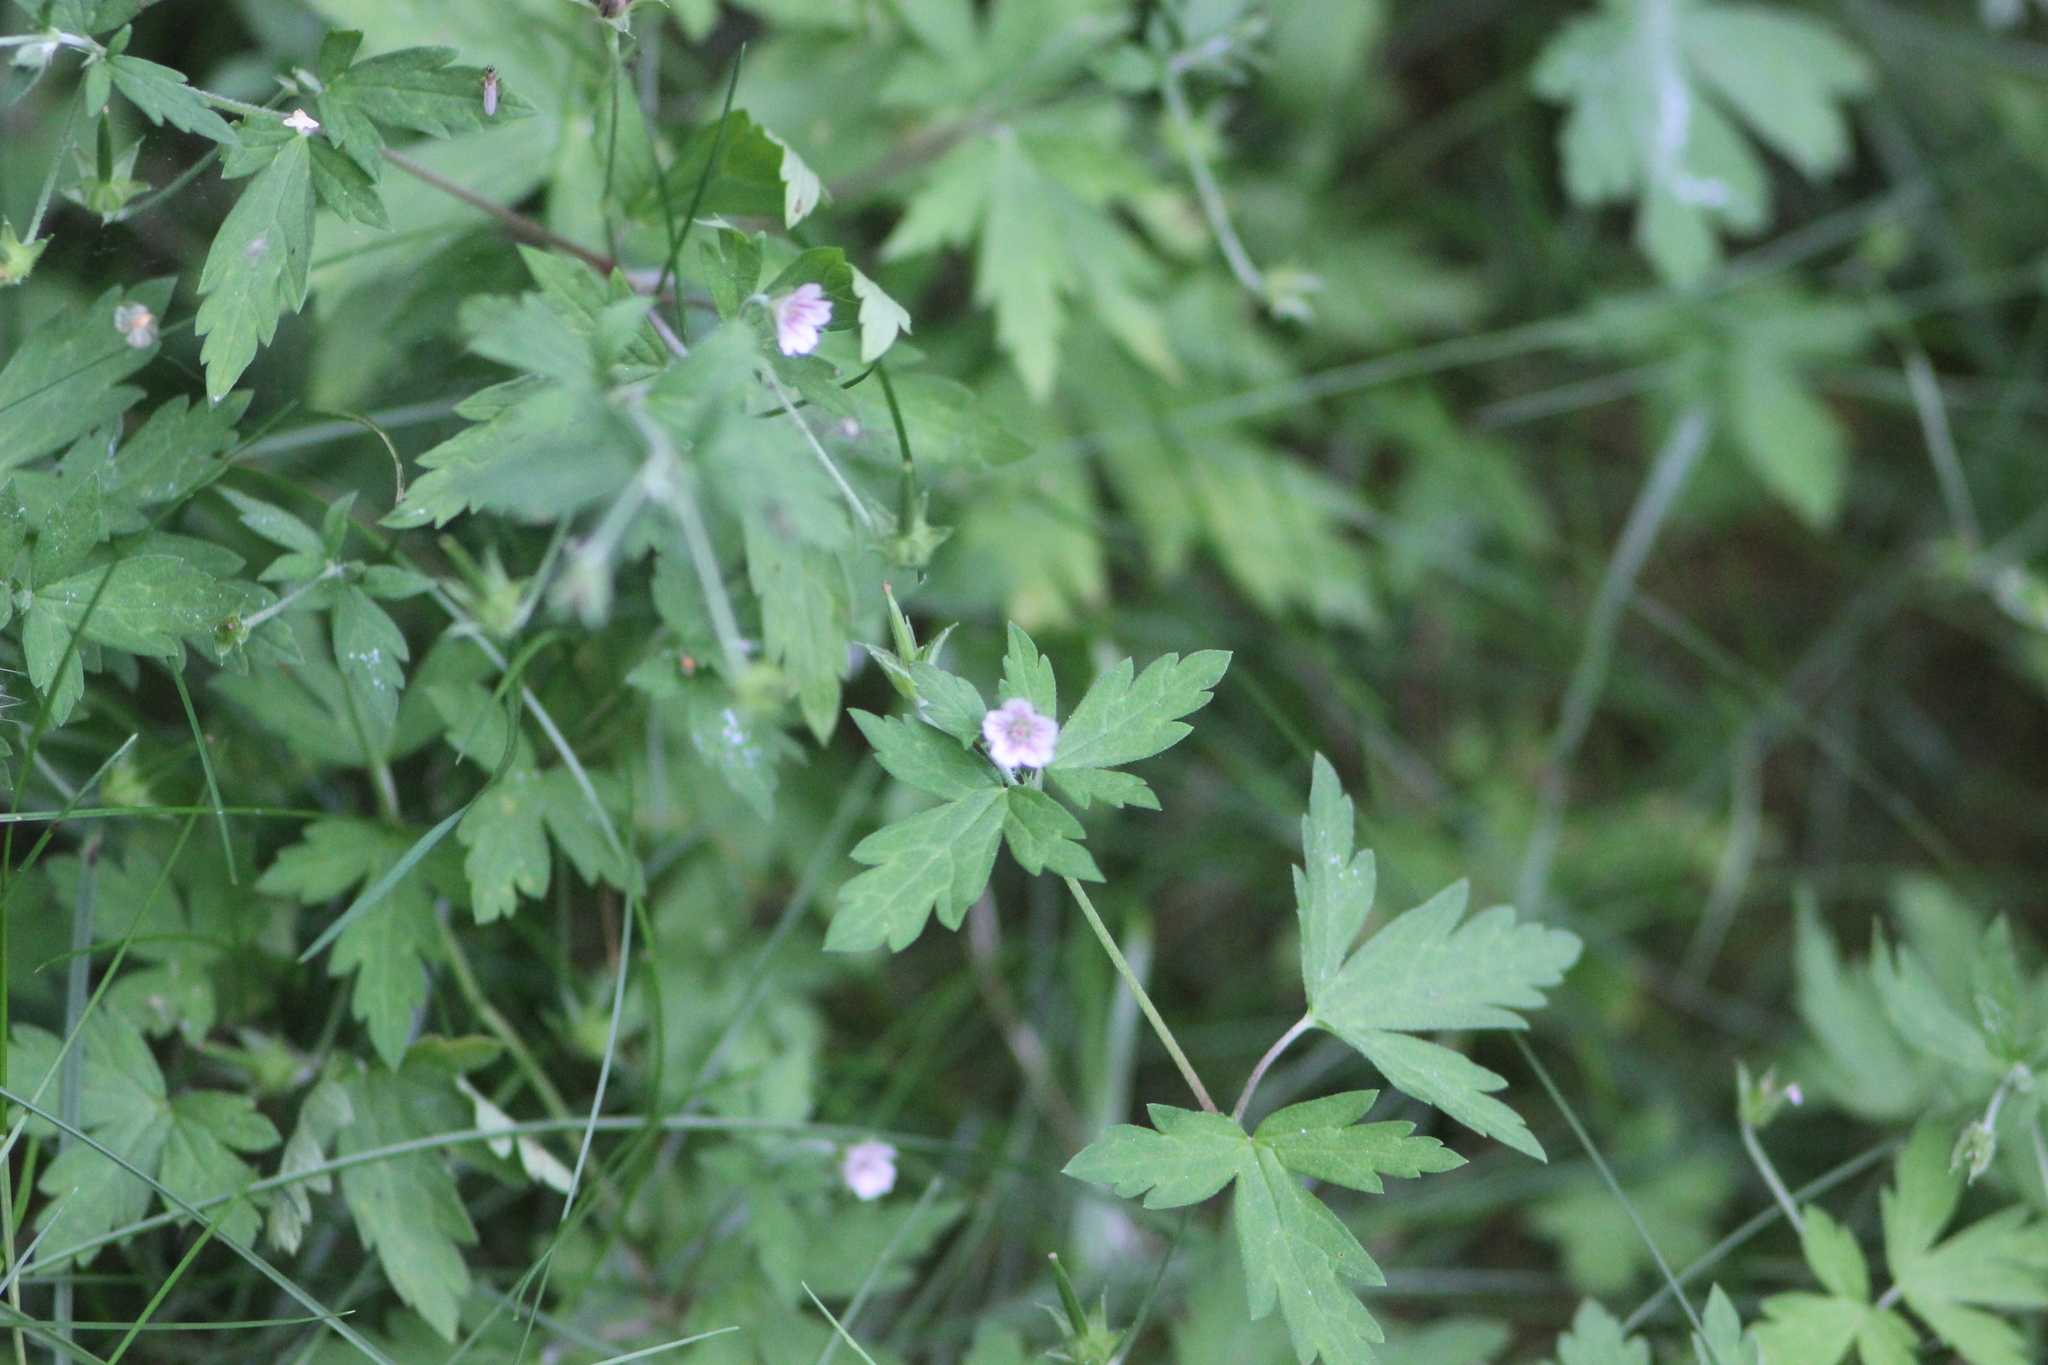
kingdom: Plantae
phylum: Tracheophyta
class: Magnoliopsida
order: Geraniales
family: Geraniaceae
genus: Geranium
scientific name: Geranium sibiricum
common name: Siberian crane's-bill
